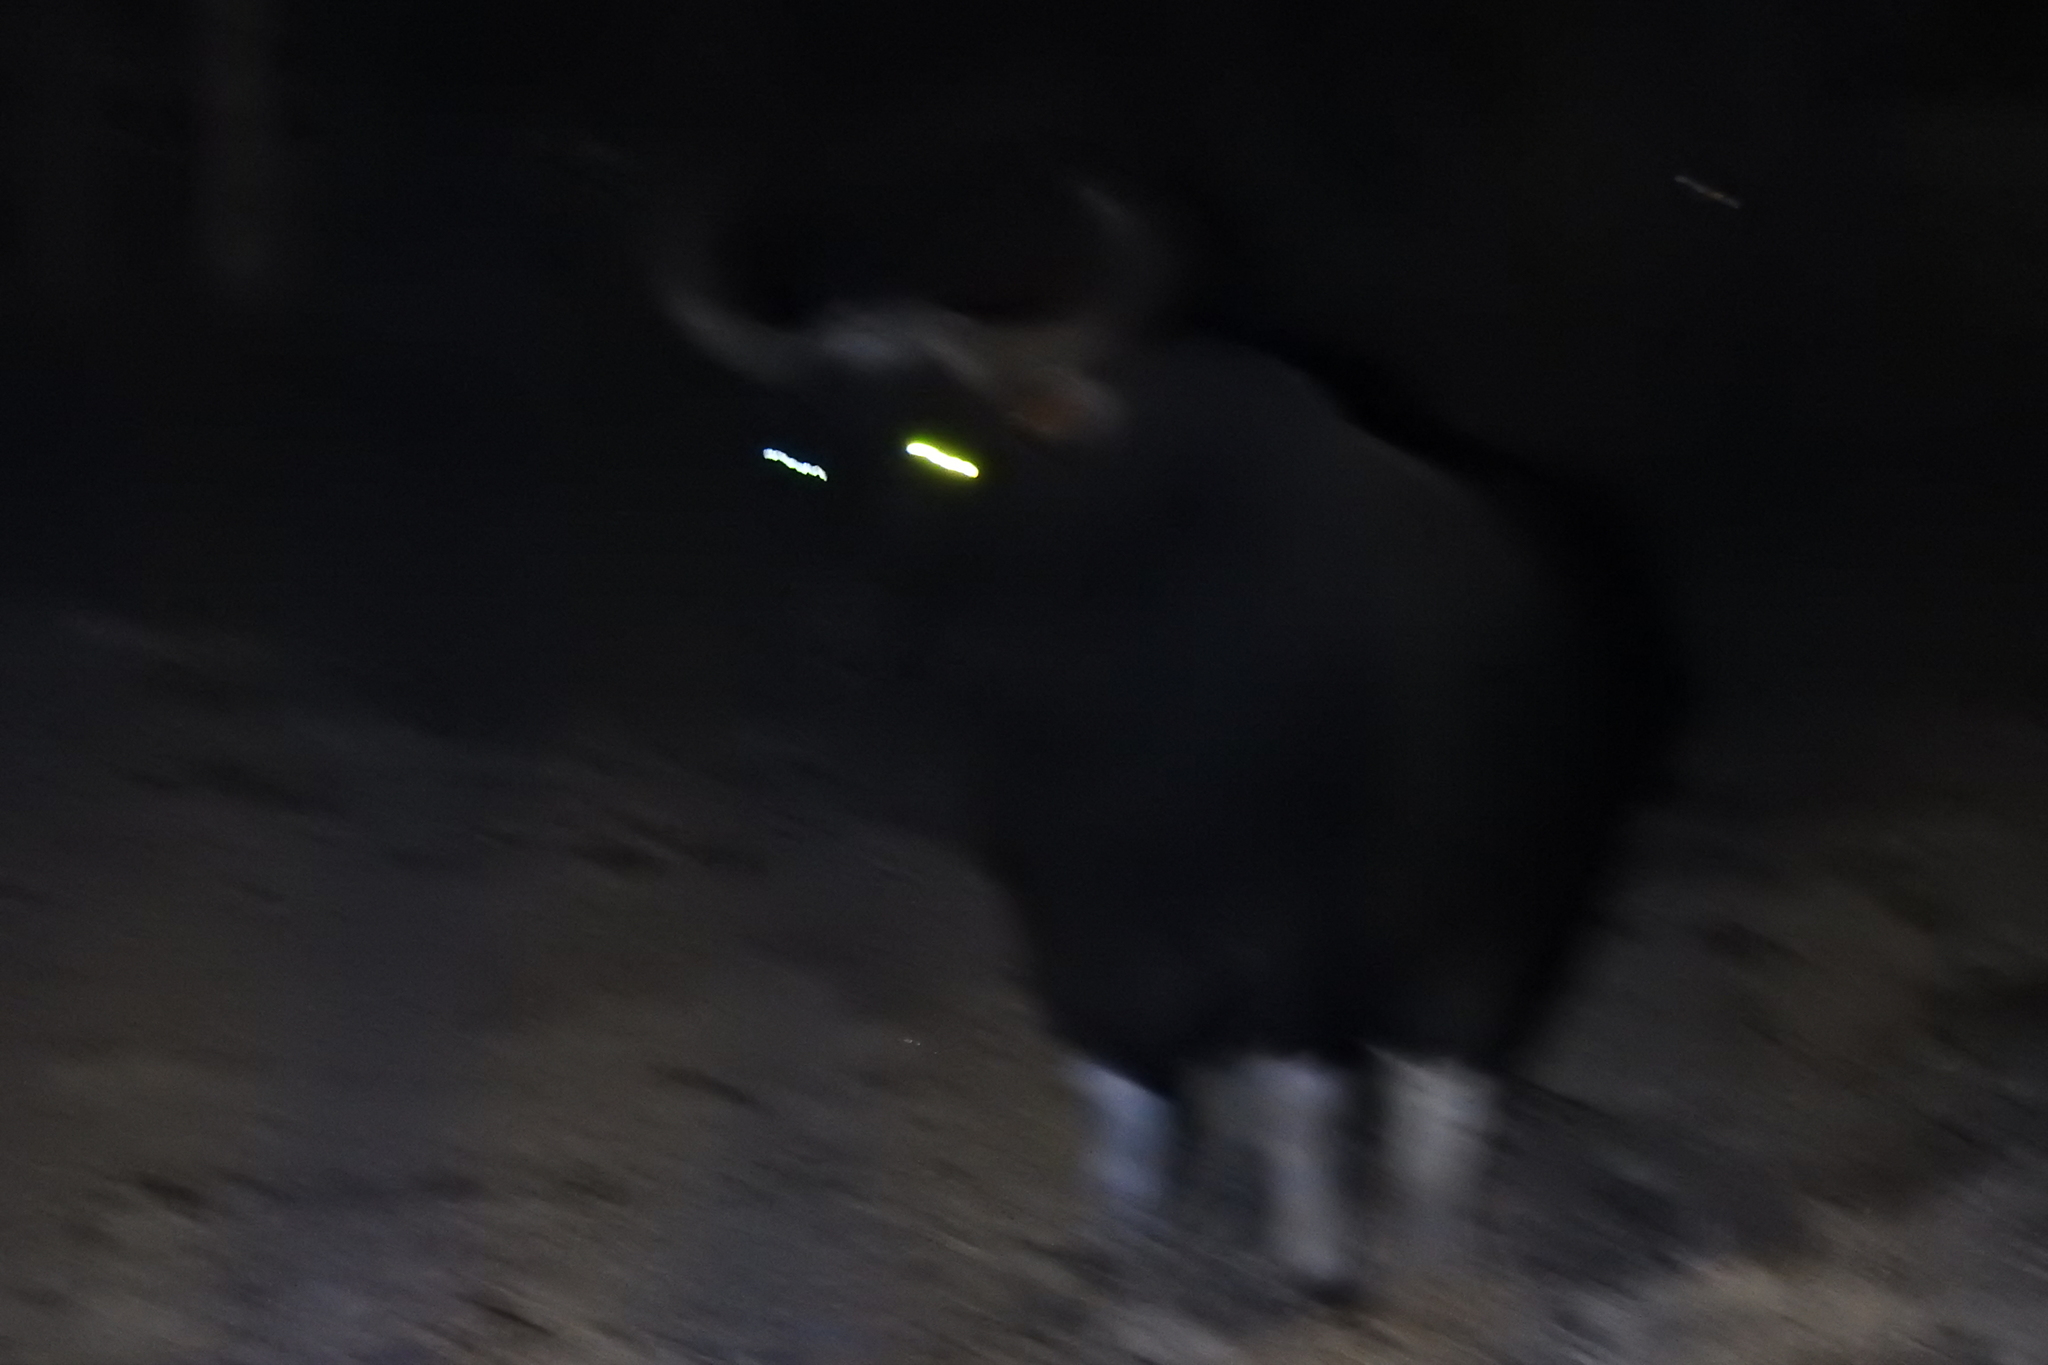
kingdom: Animalia
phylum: Chordata
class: Mammalia
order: Artiodactyla
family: Bovidae
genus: Bos
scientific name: Bos javanicus
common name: Banteng
